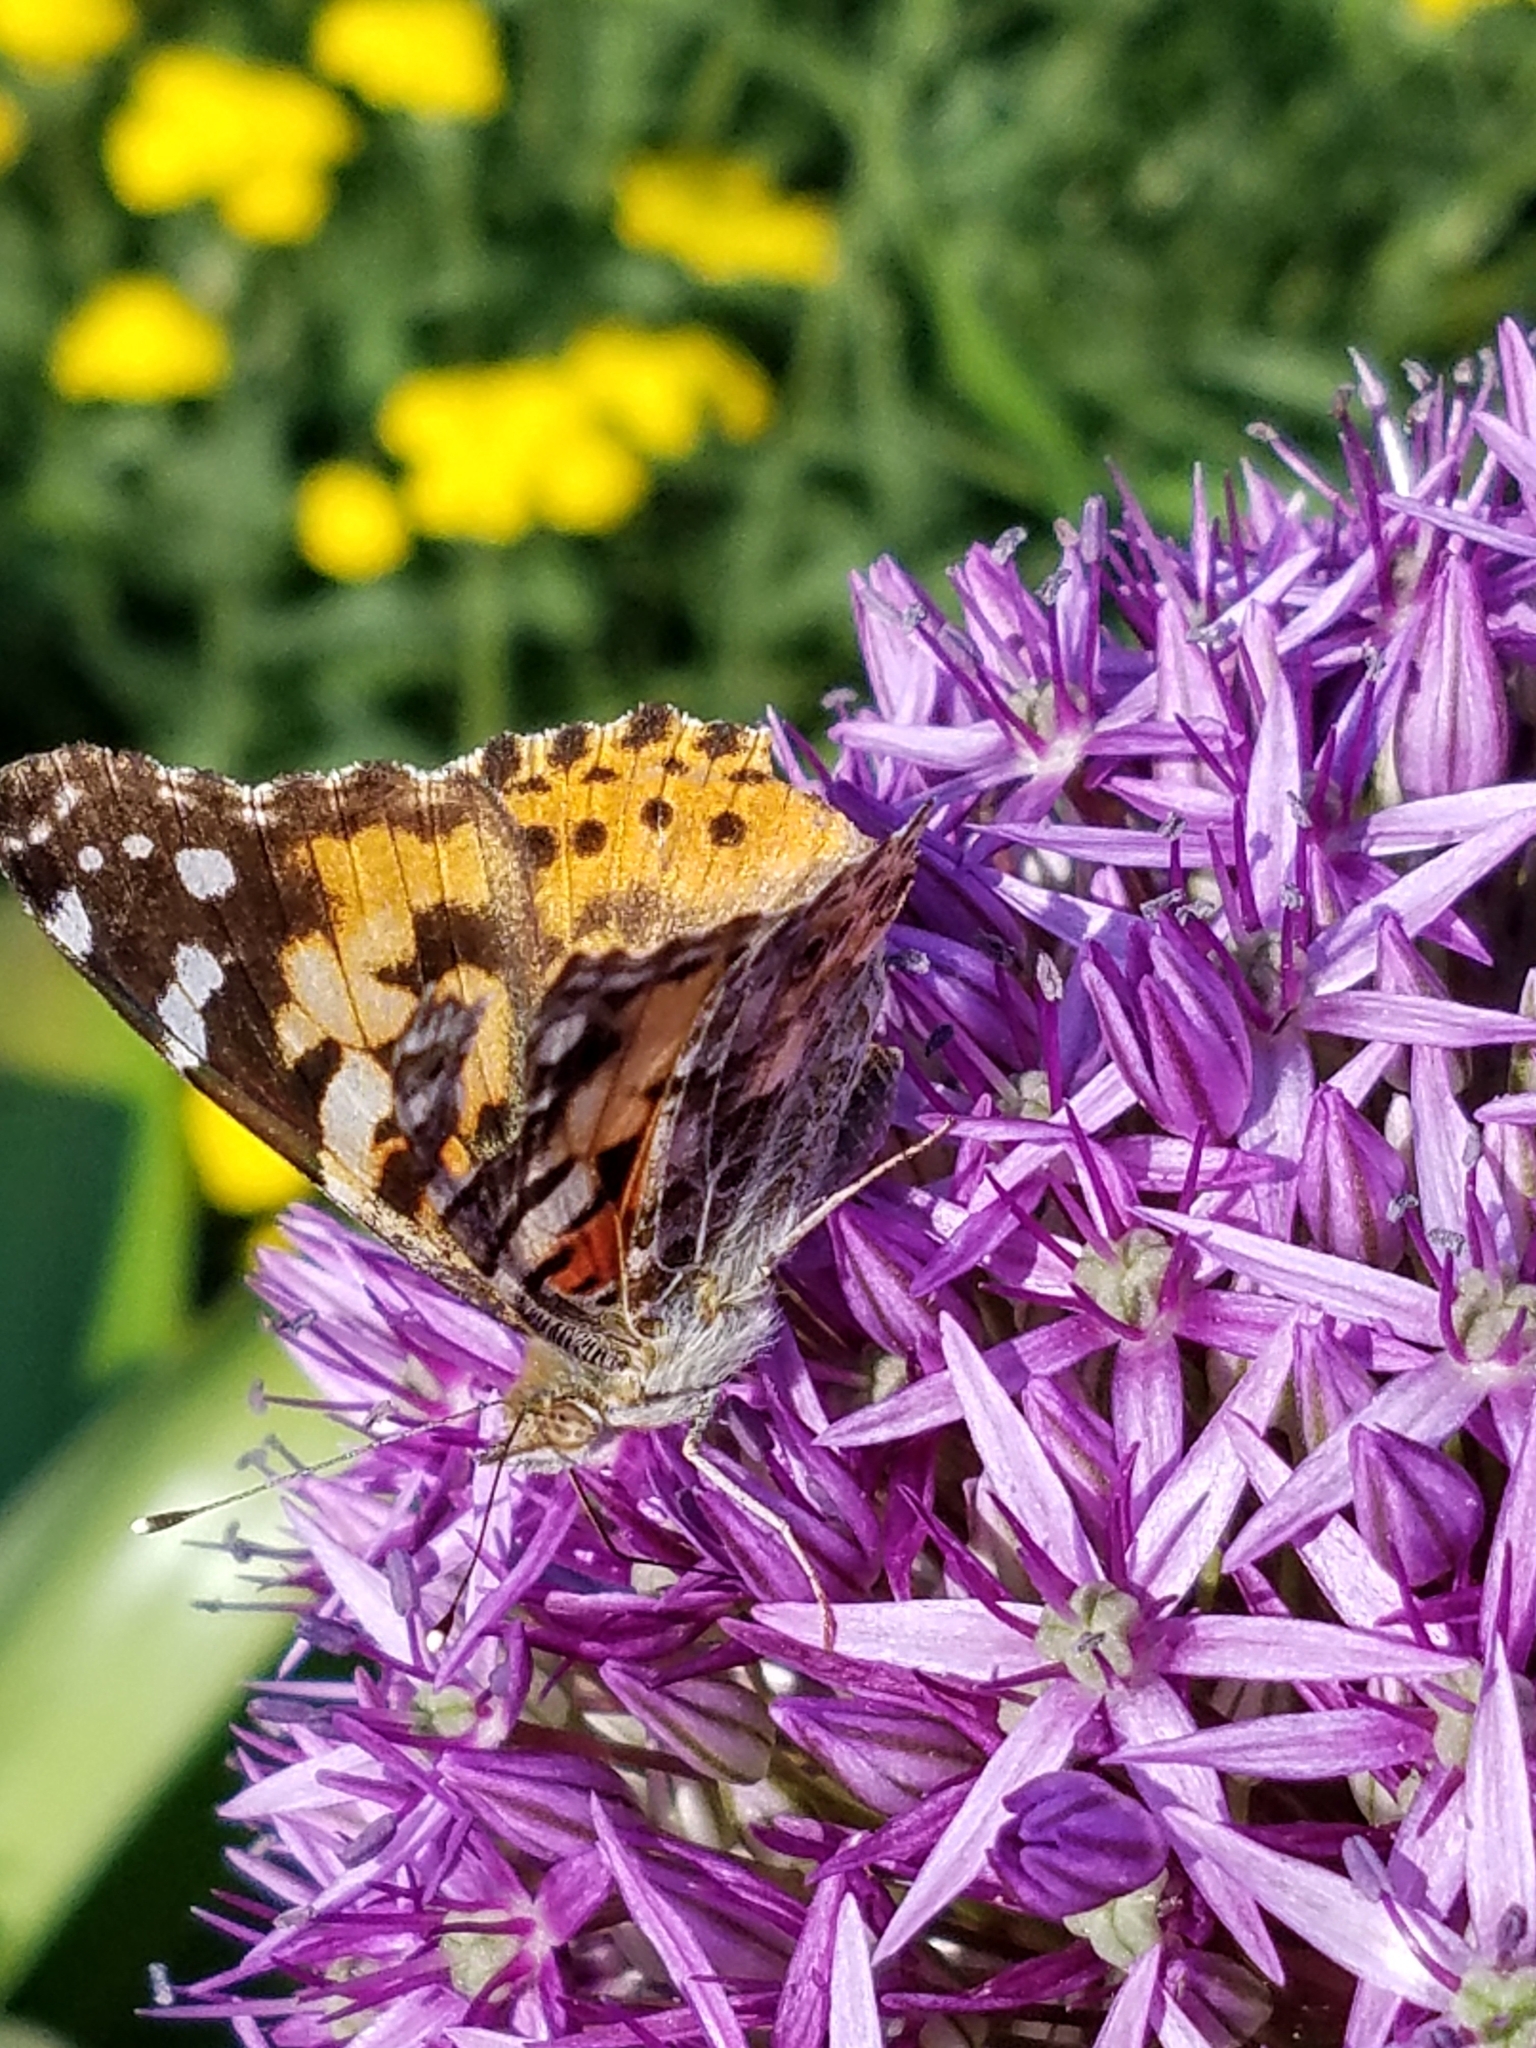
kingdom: Animalia
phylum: Arthropoda
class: Insecta
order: Lepidoptera
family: Nymphalidae
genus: Vanessa
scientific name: Vanessa cardui
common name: Painted lady
